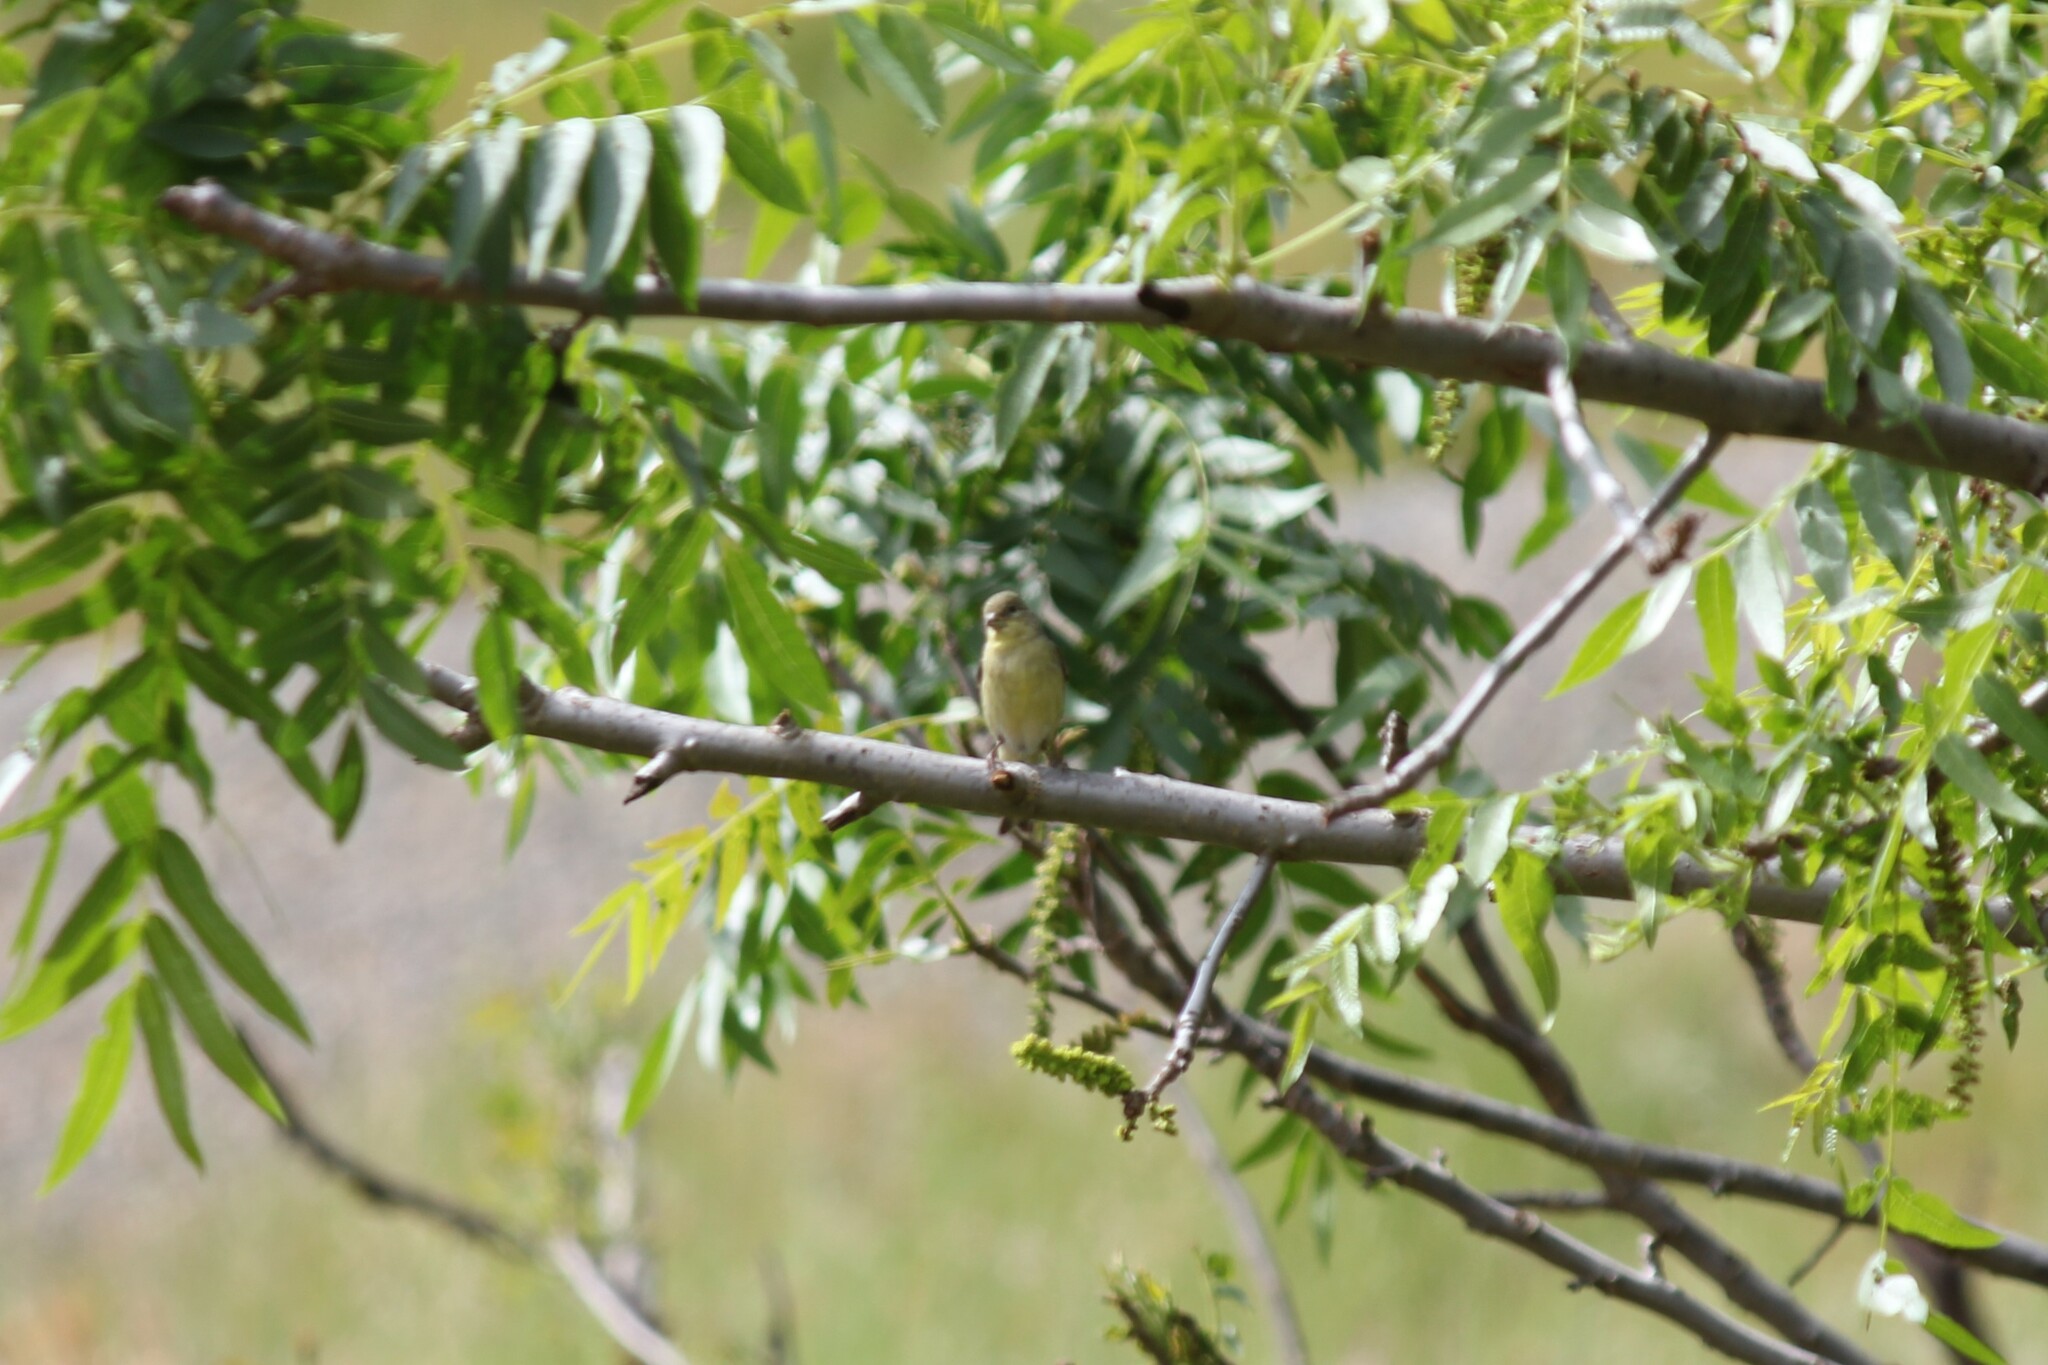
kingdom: Animalia
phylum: Chordata
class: Aves
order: Passeriformes
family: Fringillidae
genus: Spinus
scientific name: Spinus psaltria
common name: Lesser goldfinch
